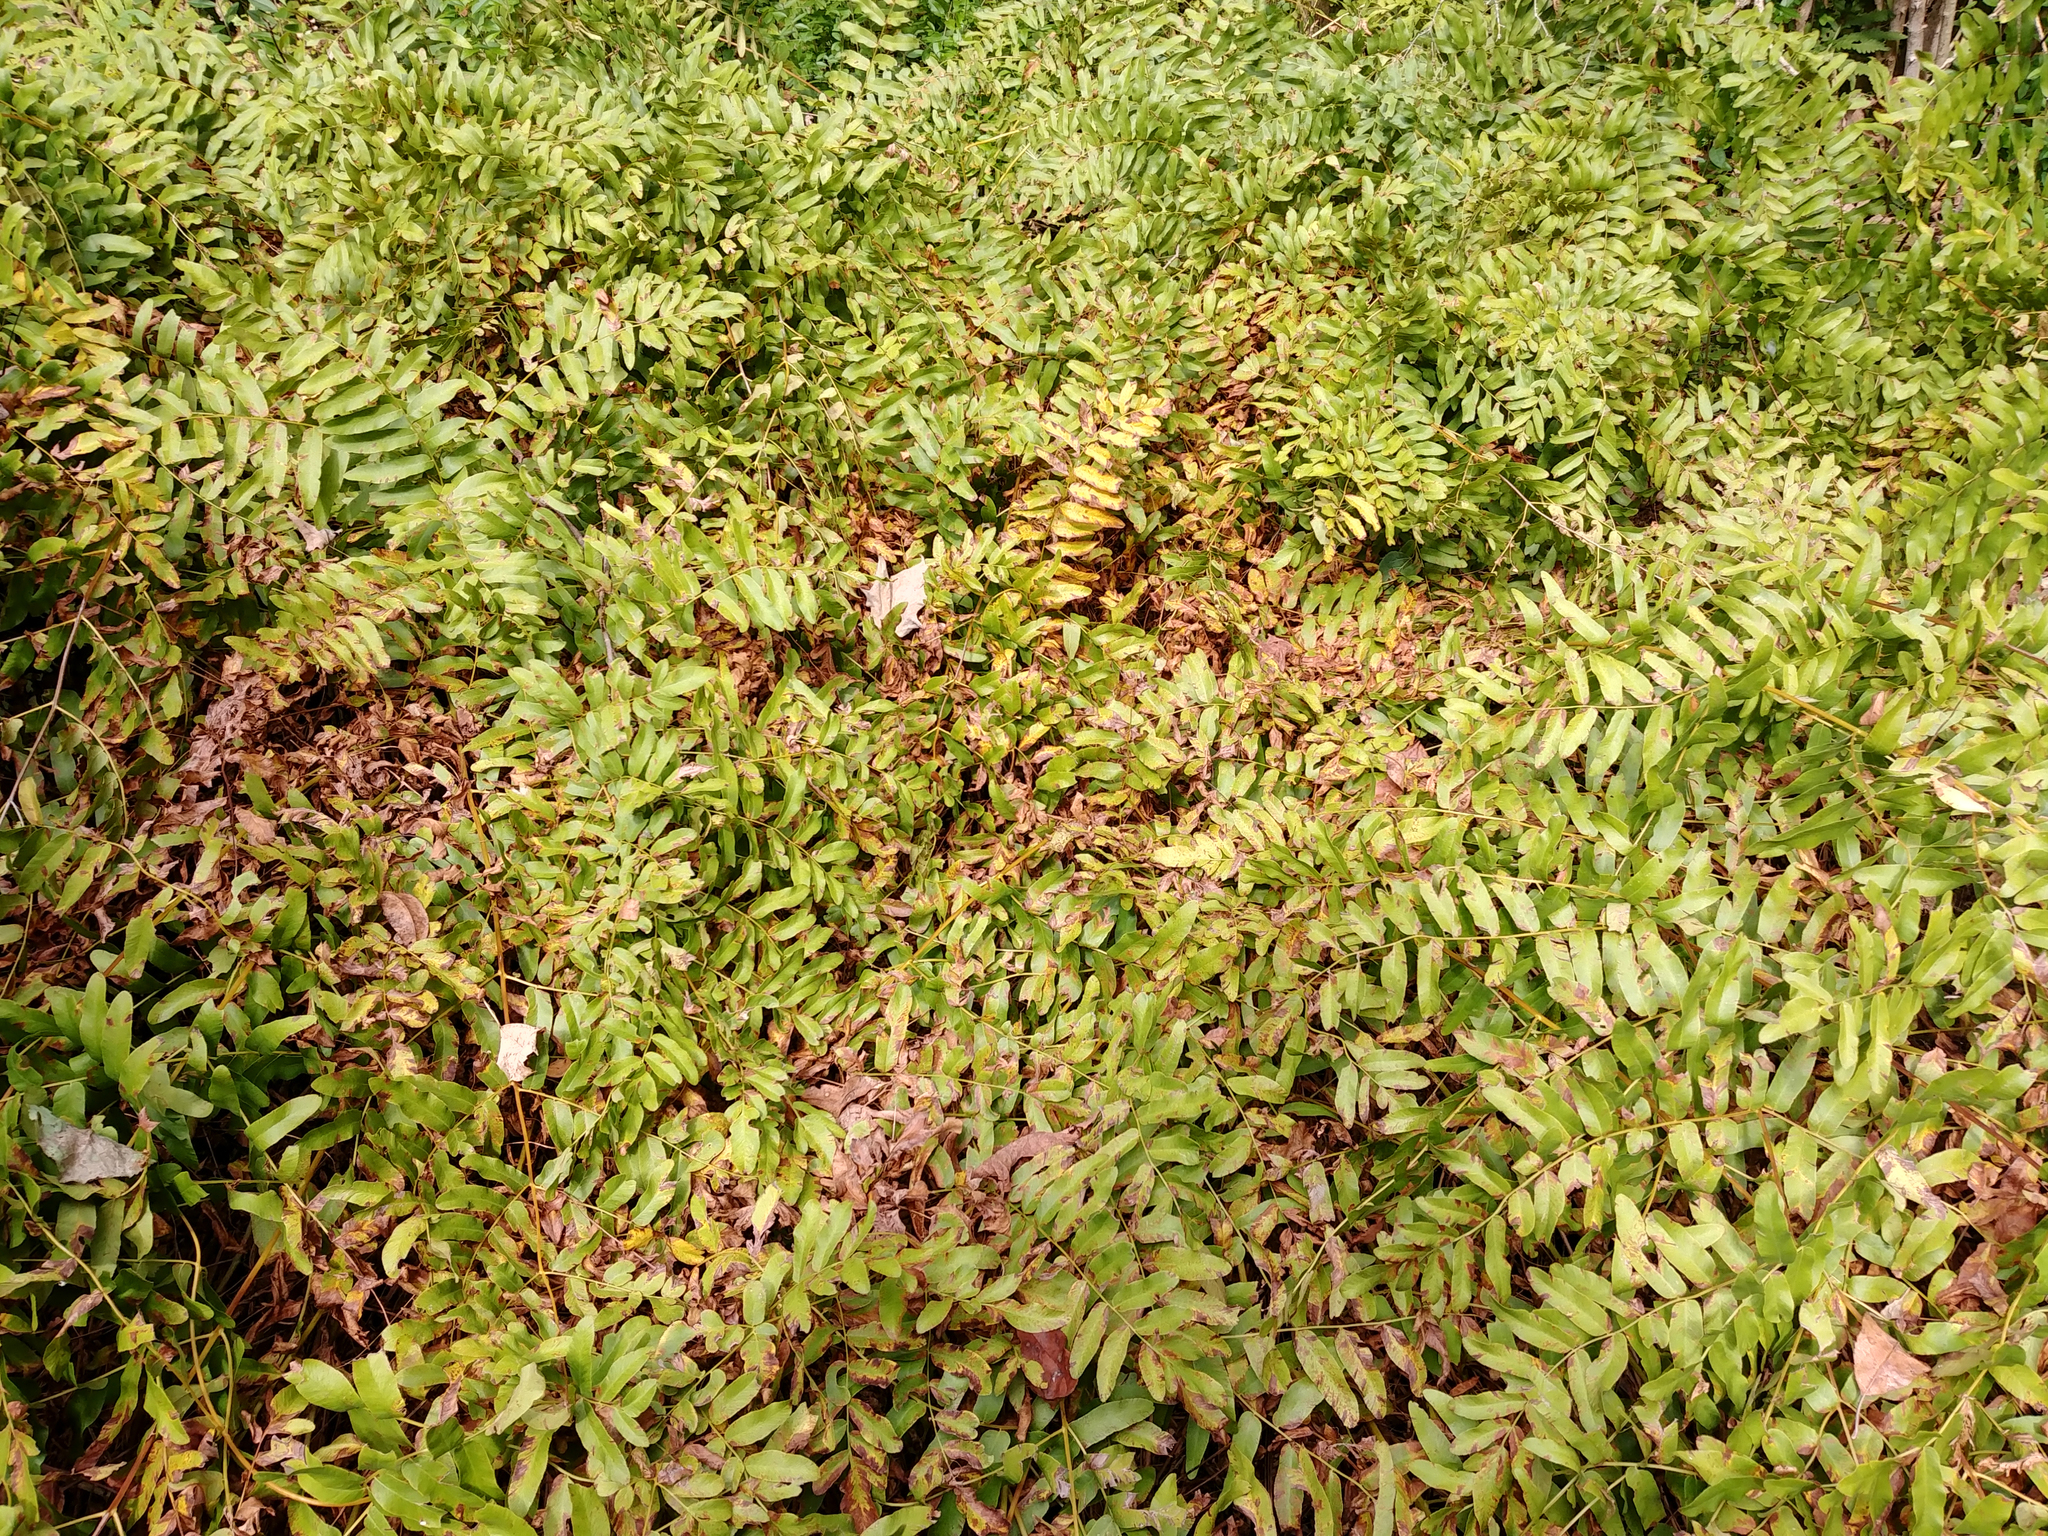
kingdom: Plantae
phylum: Tracheophyta
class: Polypodiopsida
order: Osmundales
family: Osmundaceae
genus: Osmunda
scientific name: Osmunda spectabilis
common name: American royal fern
